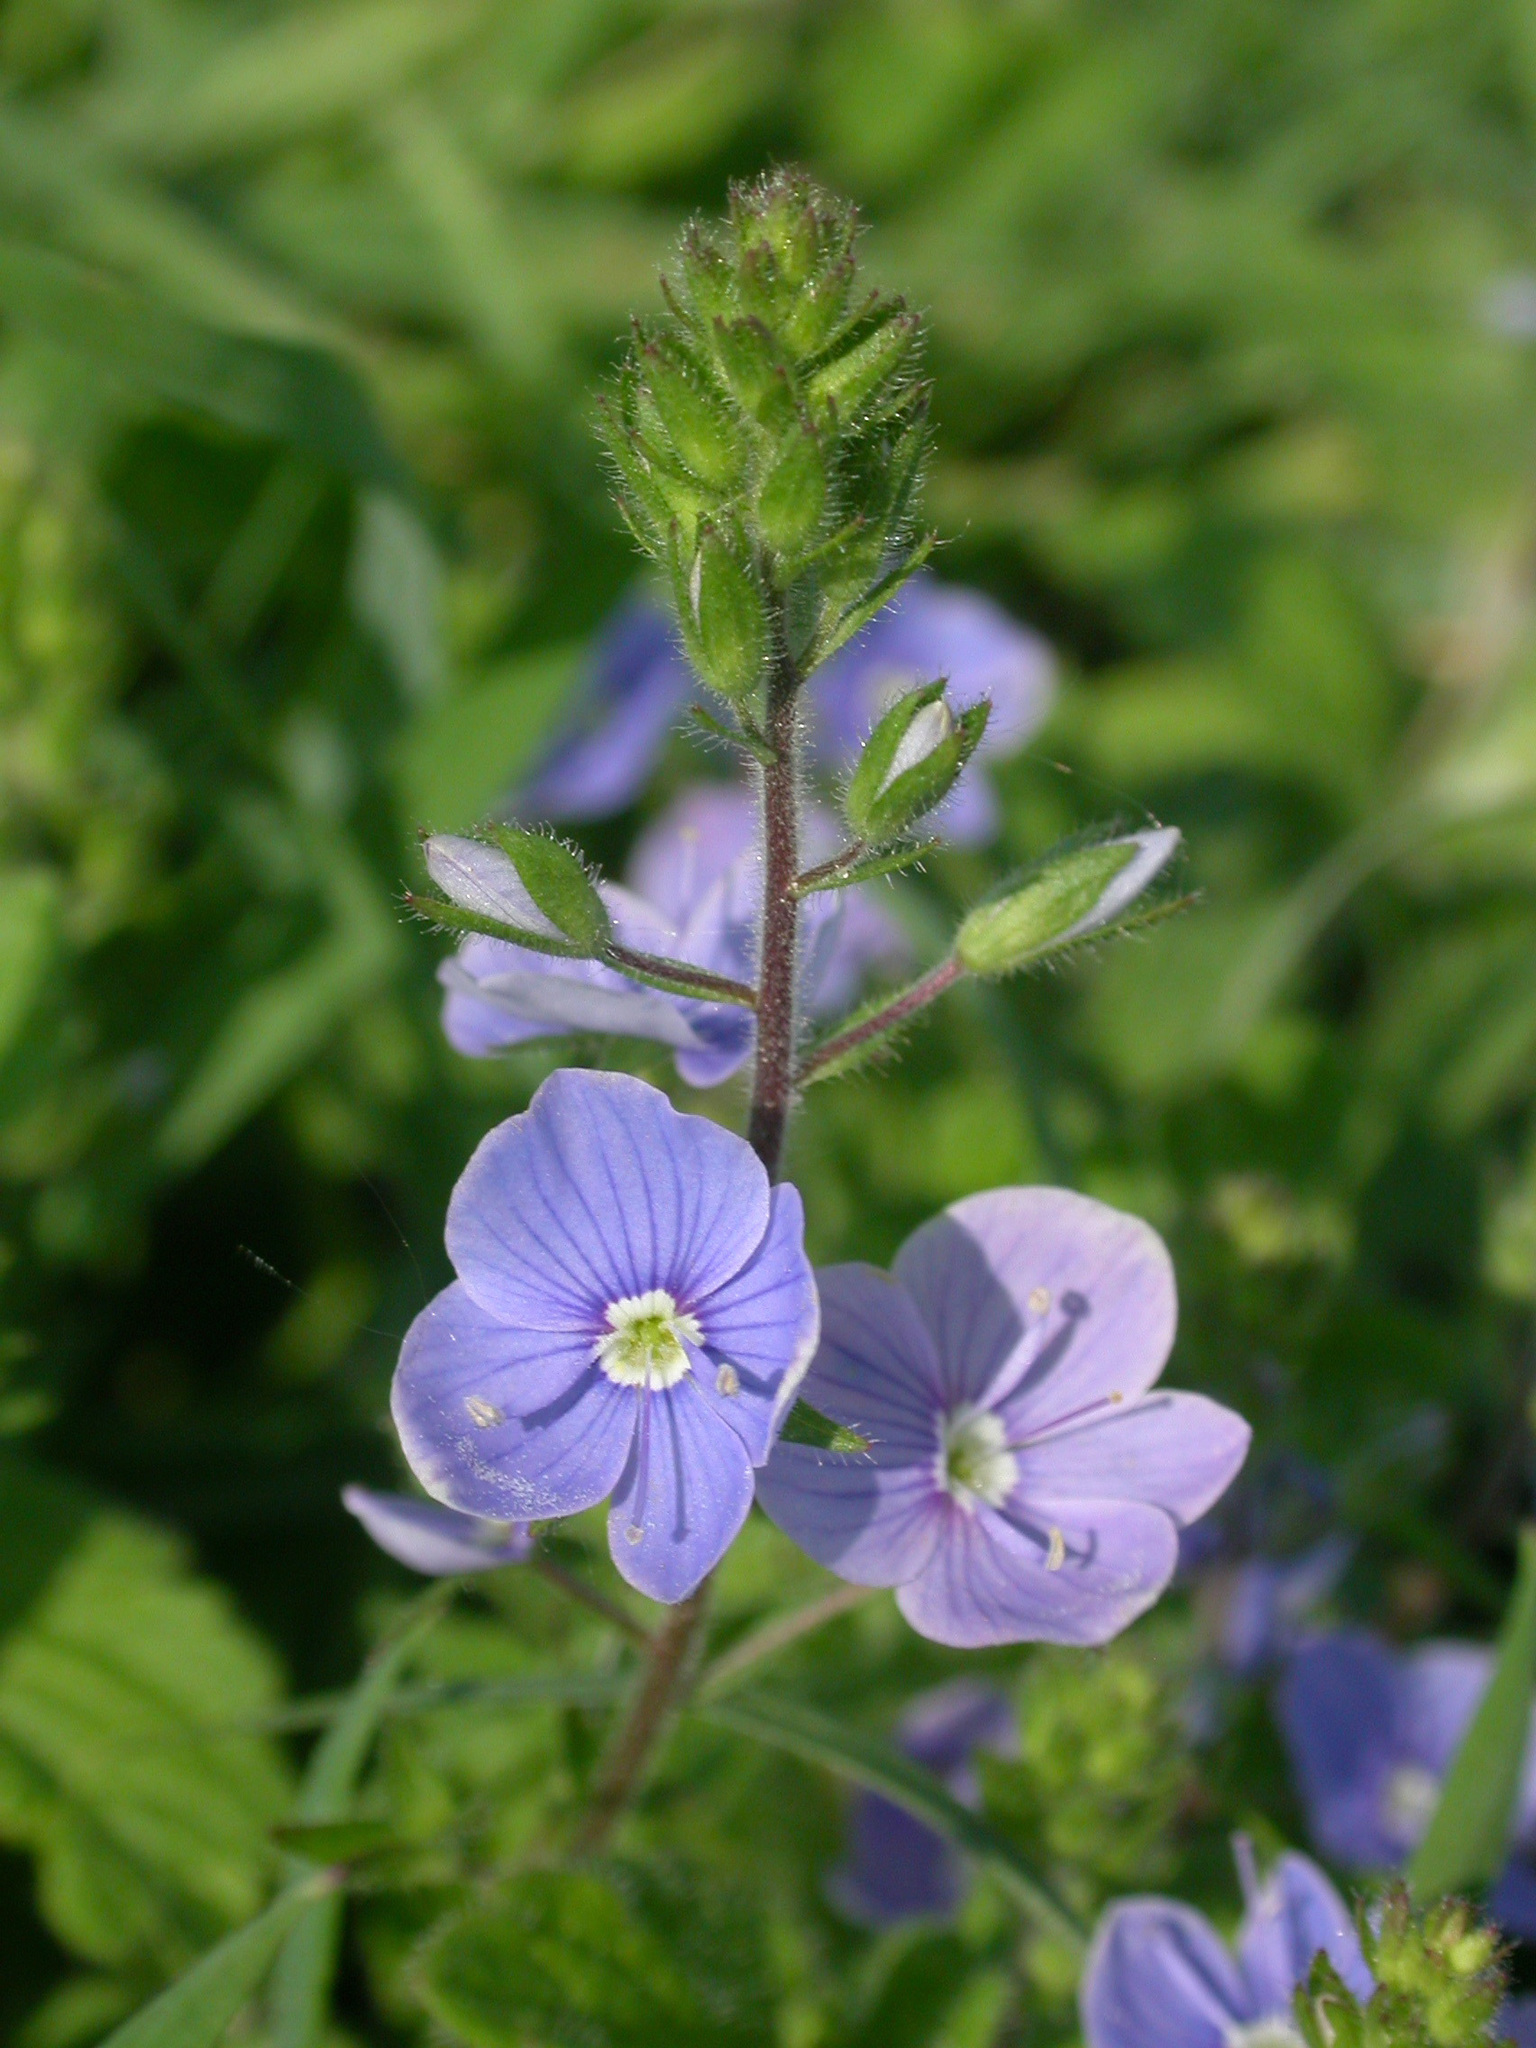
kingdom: Plantae
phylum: Tracheophyta
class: Magnoliopsida
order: Lamiales
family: Plantaginaceae
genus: Veronica
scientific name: Veronica chamaedrys
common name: Germander speedwell
